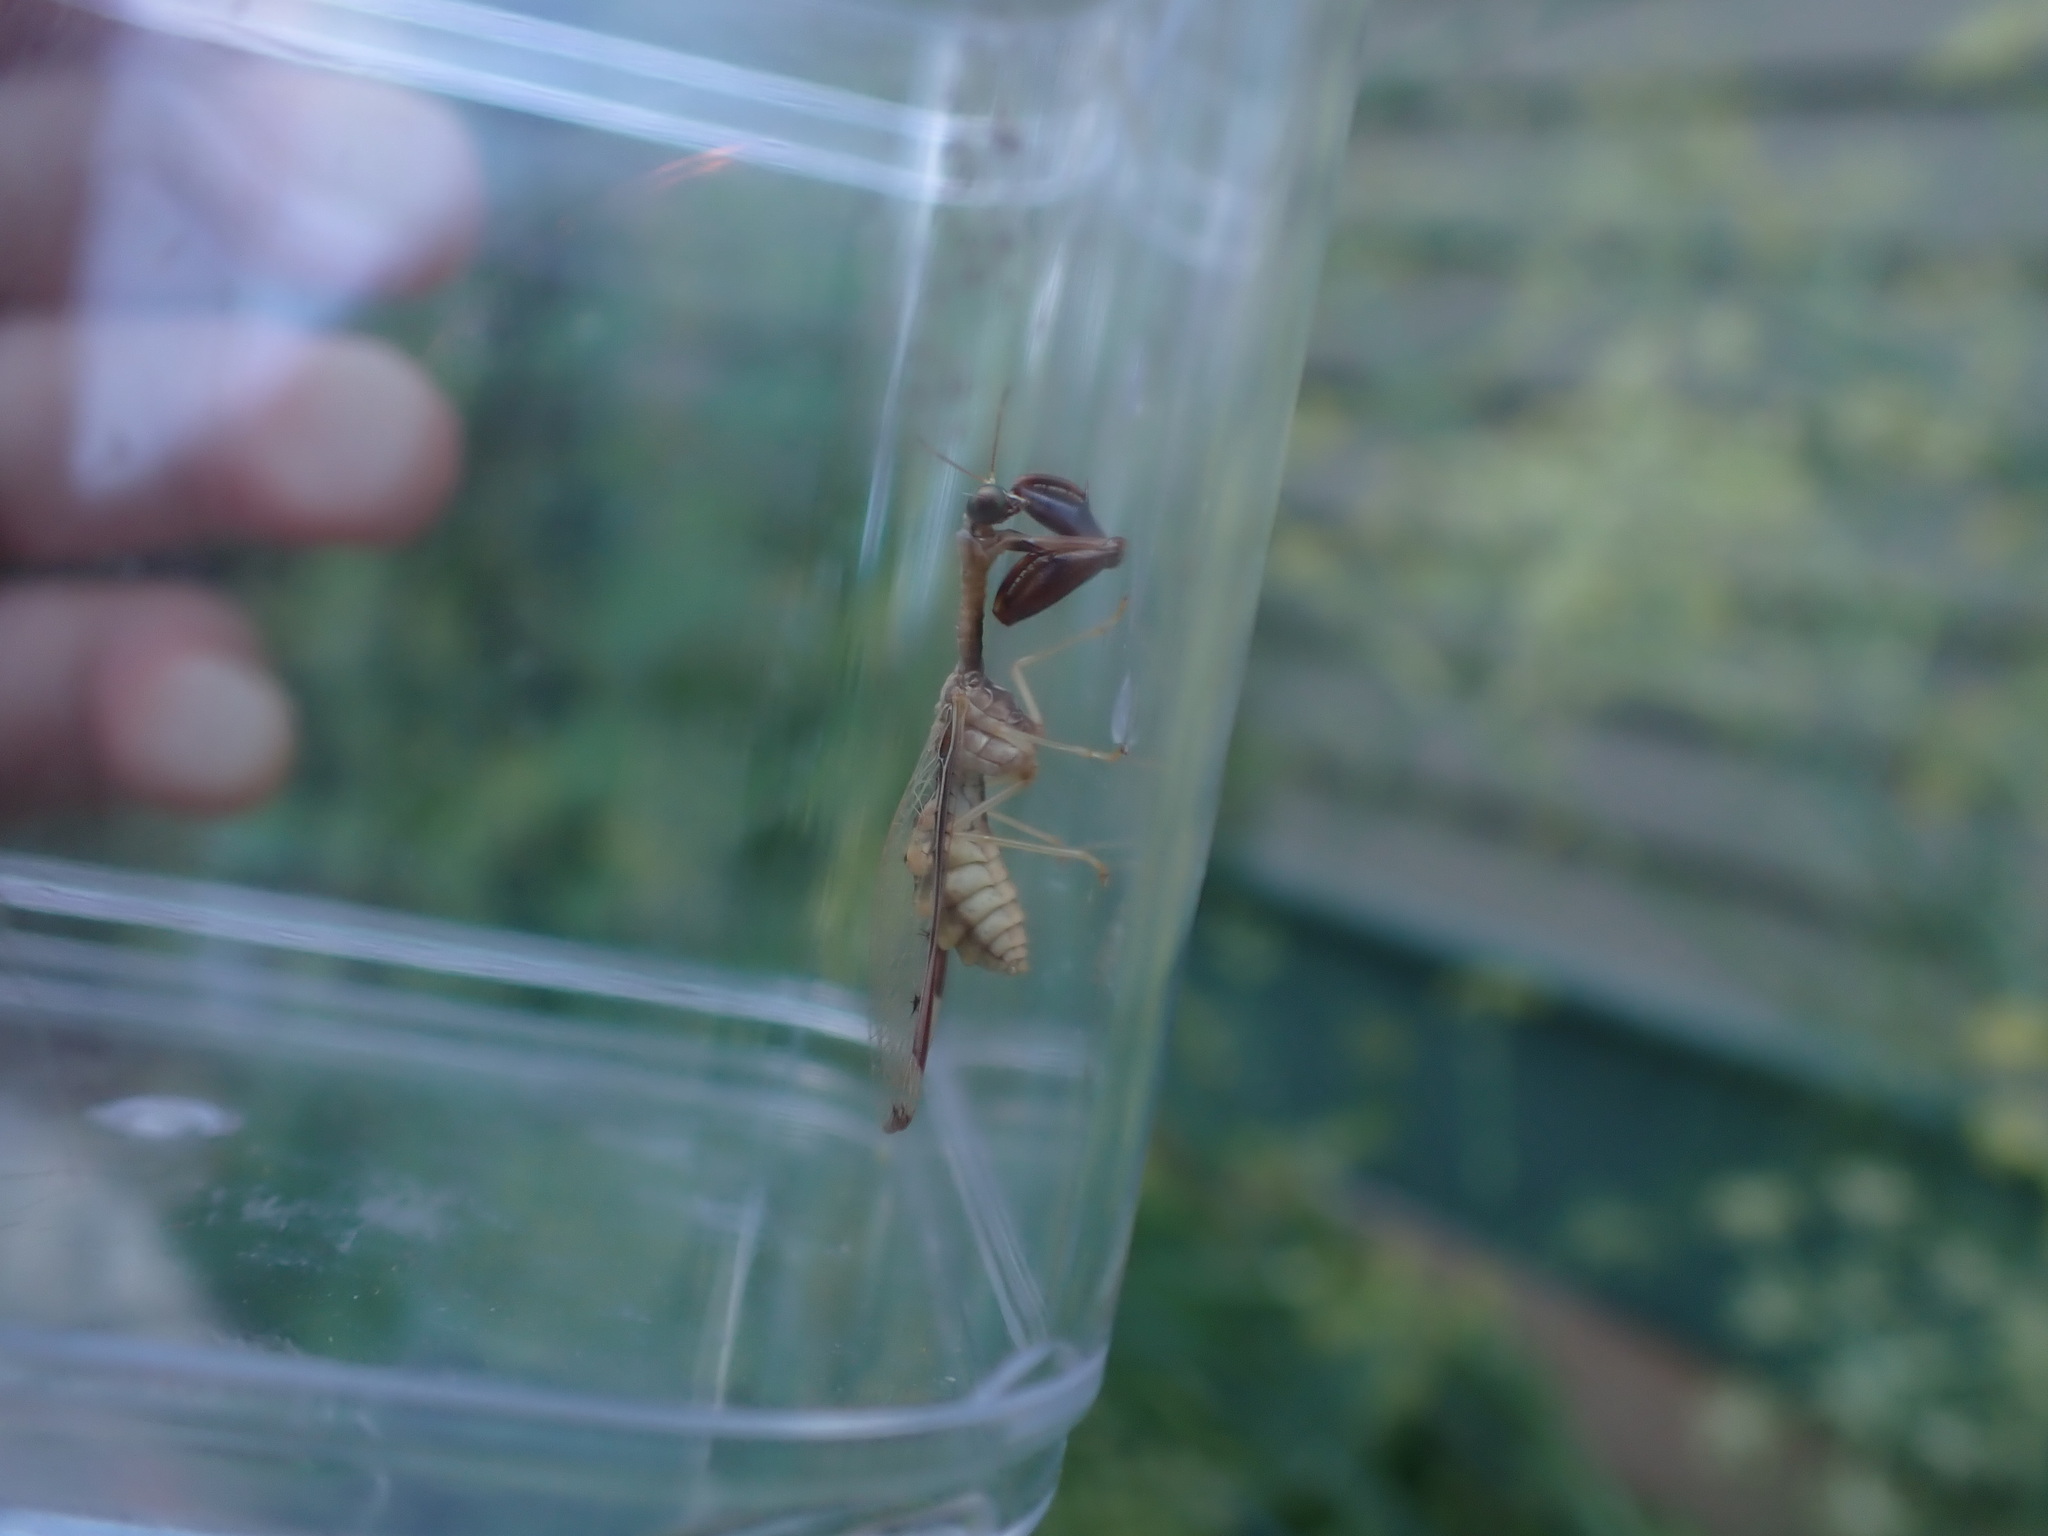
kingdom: Animalia
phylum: Arthropoda
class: Insecta
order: Neuroptera
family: Mantispidae
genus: Dicromantispa
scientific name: Dicromantispa interrupta
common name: Four-spotted mantidfly
